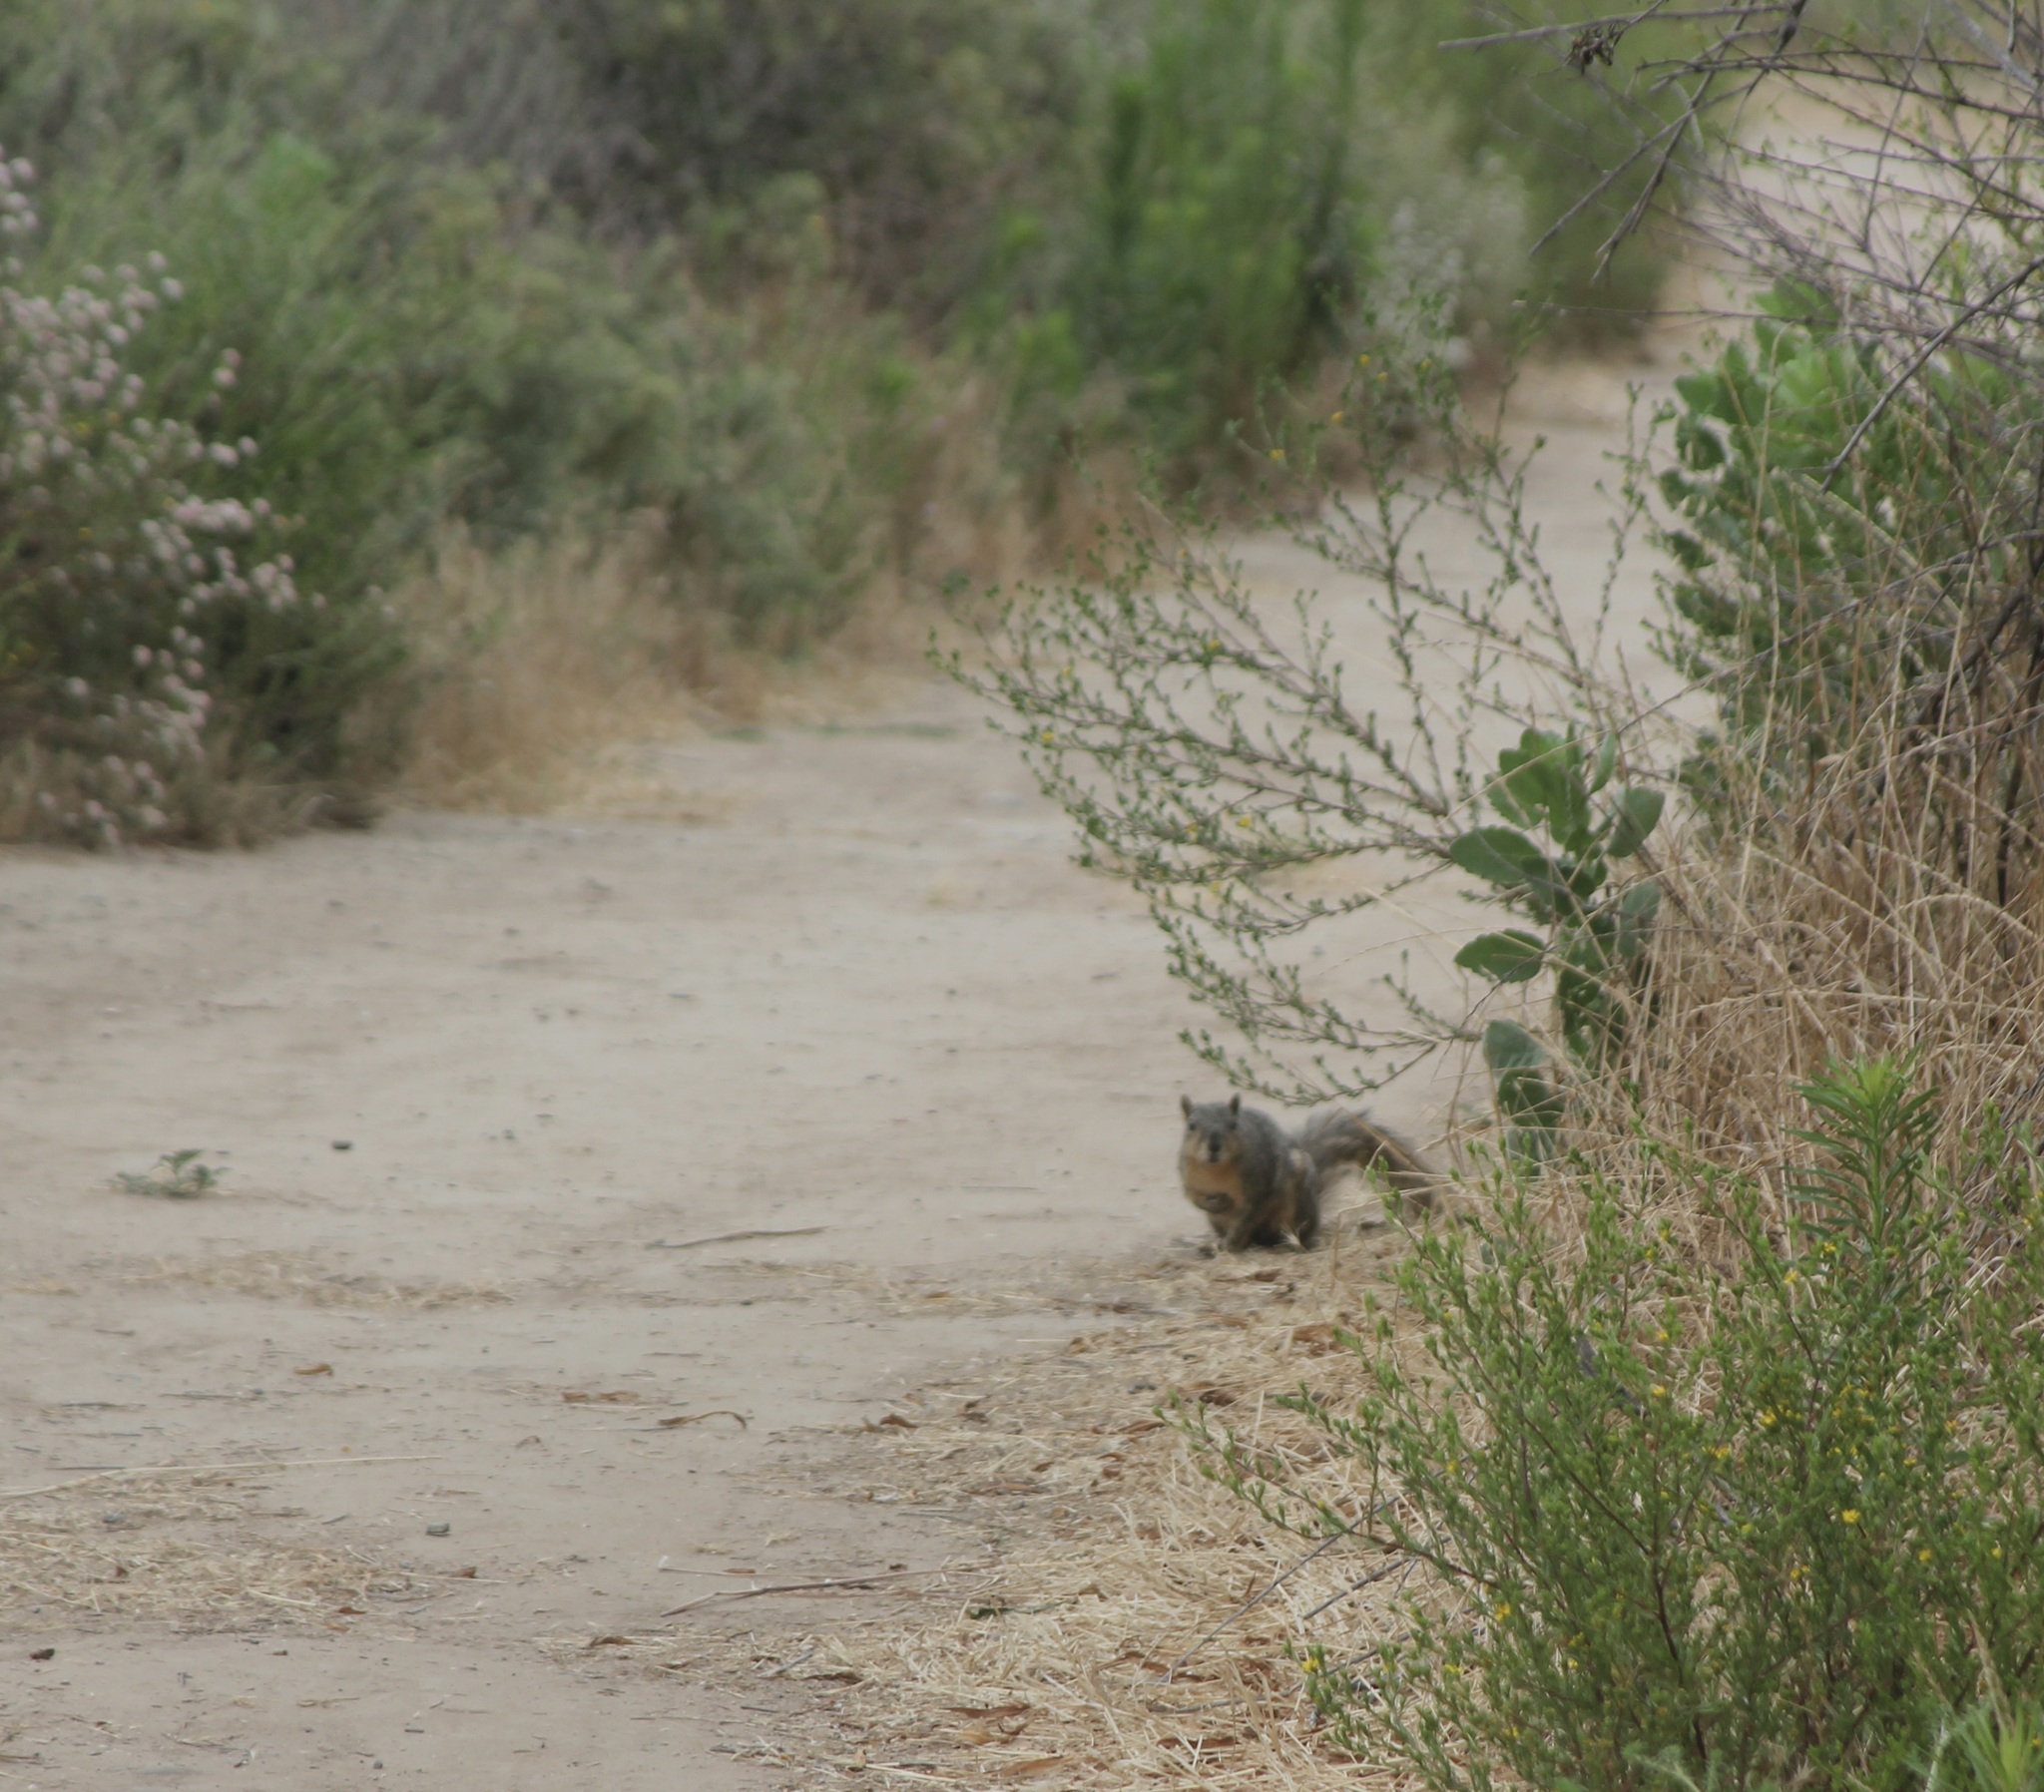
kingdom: Animalia
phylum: Chordata
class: Mammalia
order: Rodentia
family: Sciuridae
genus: Sciurus
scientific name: Sciurus niger
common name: Fox squirrel
